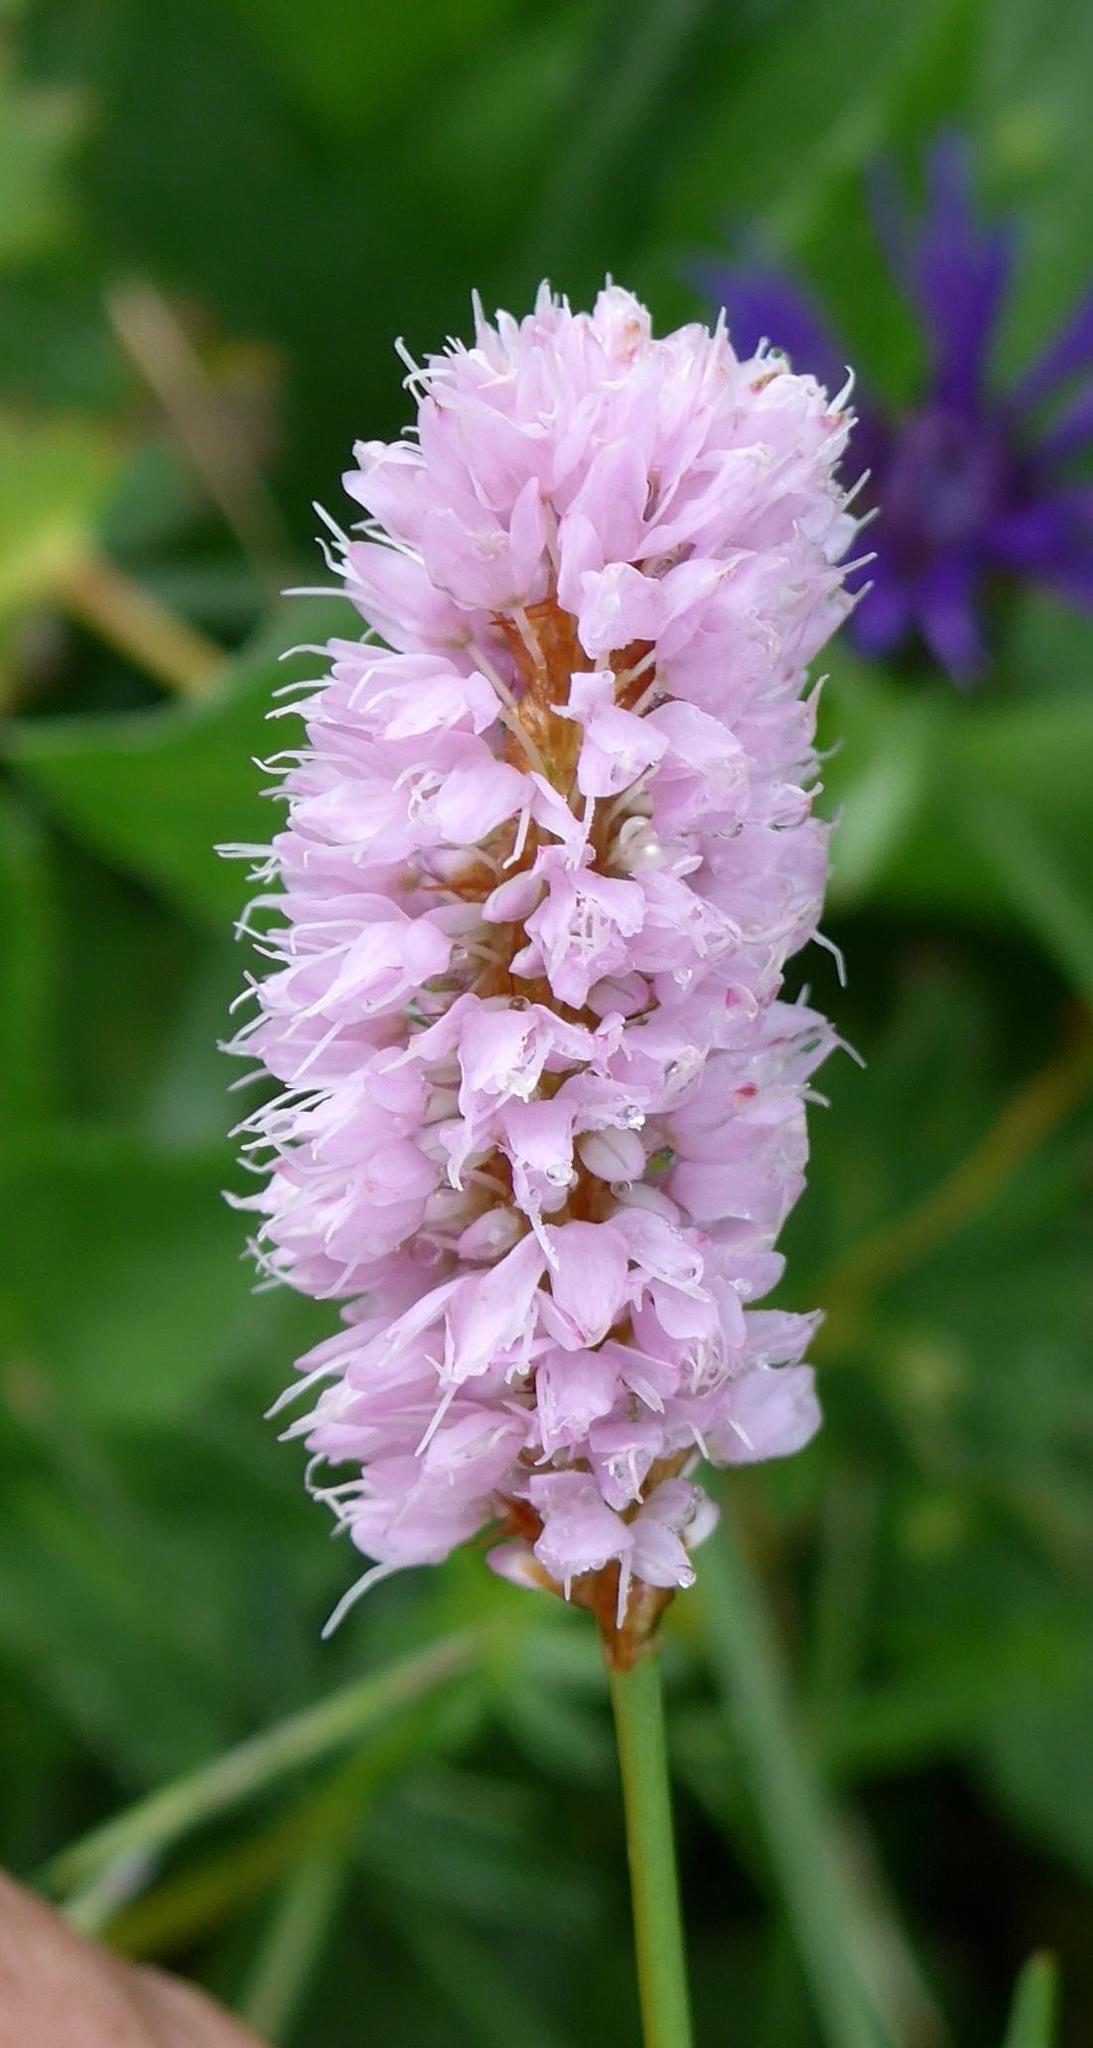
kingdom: Plantae
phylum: Tracheophyta
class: Magnoliopsida
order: Caryophyllales
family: Polygonaceae
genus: Bistorta
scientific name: Bistorta officinalis
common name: Common bistort
